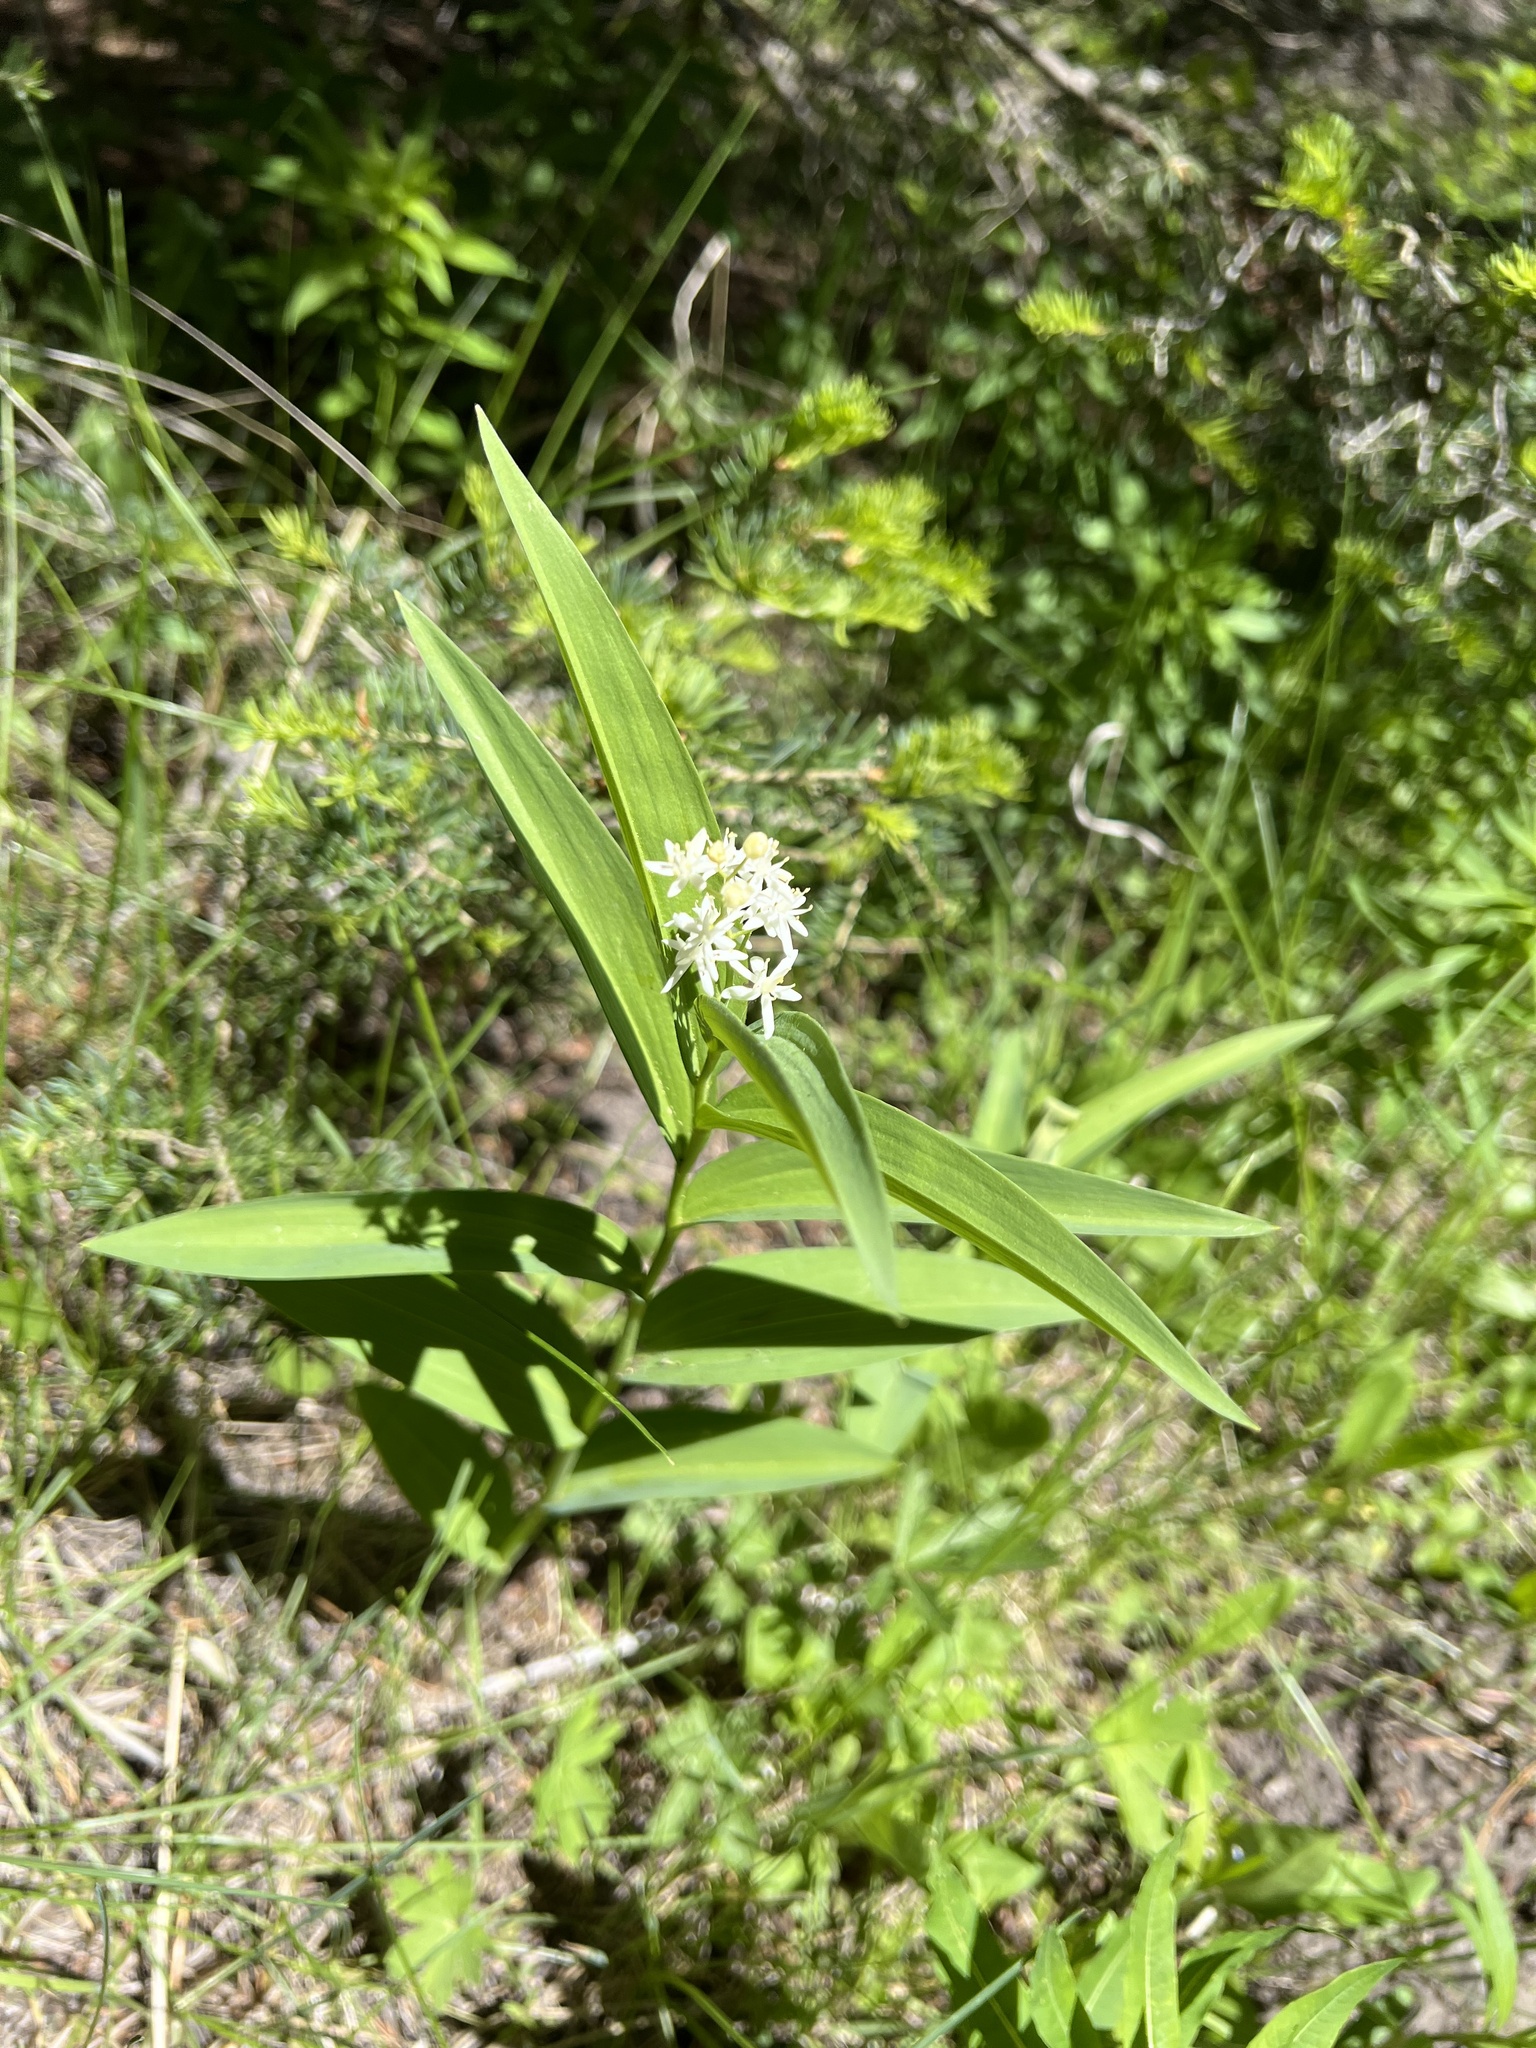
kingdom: Plantae
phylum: Tracheophyta
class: Liliopsida
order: Asparagales
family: Asparagaceae
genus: Maianthemum
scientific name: Maianthemum stellatum
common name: Little false solomon's seal
